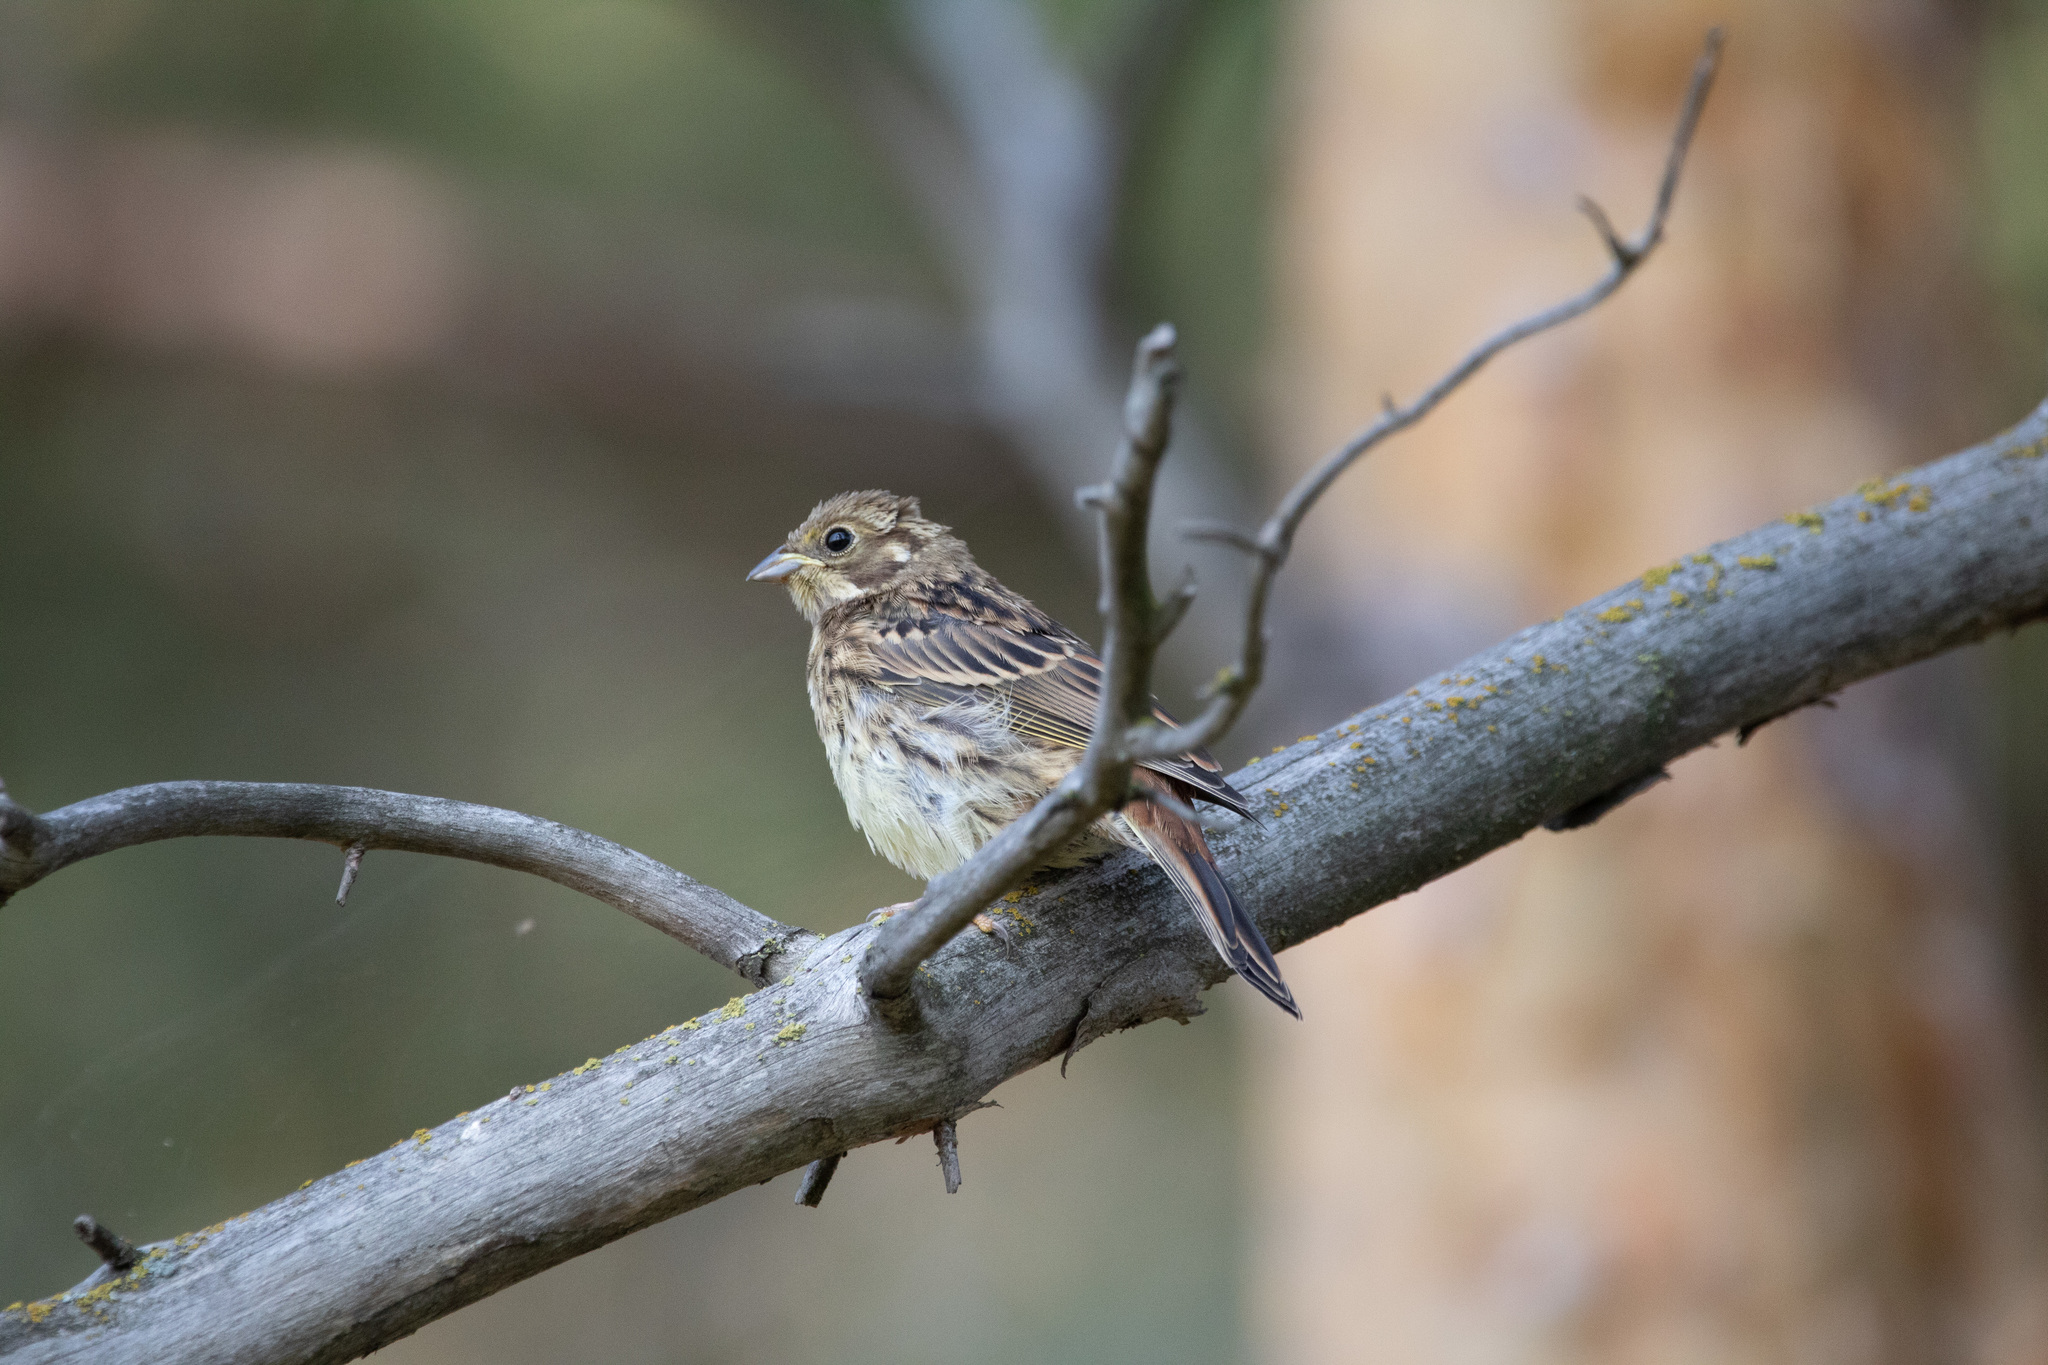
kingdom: Animalia
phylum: Chordata
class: Aves
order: Passeriformes
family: Emberizidae
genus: Emberiza
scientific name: Emberiza citrinella
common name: Yellowhammer
